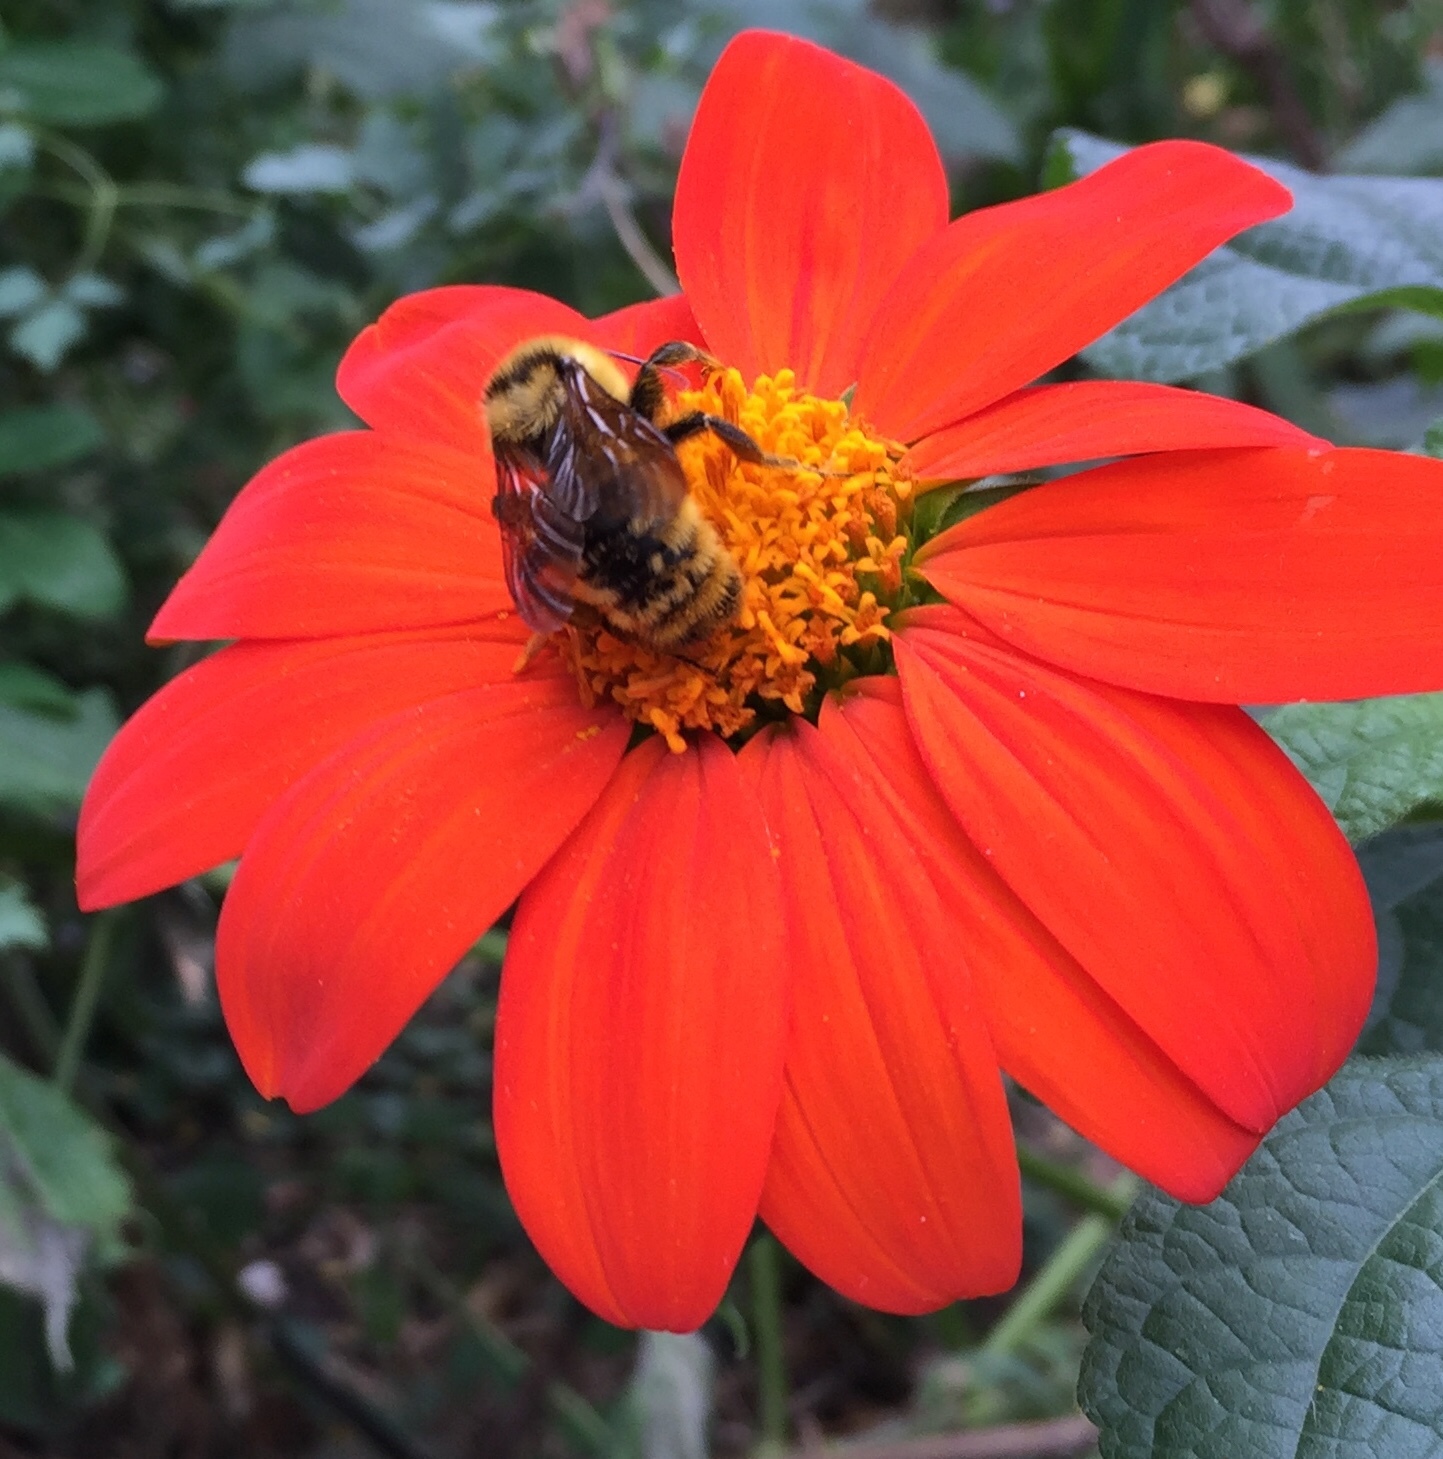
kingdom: Animalia
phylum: Arthropoda
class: Insecta
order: Hymenoptera
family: Apidae
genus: Bombus
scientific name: Bombus fervidus
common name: Yellow bumble bee
